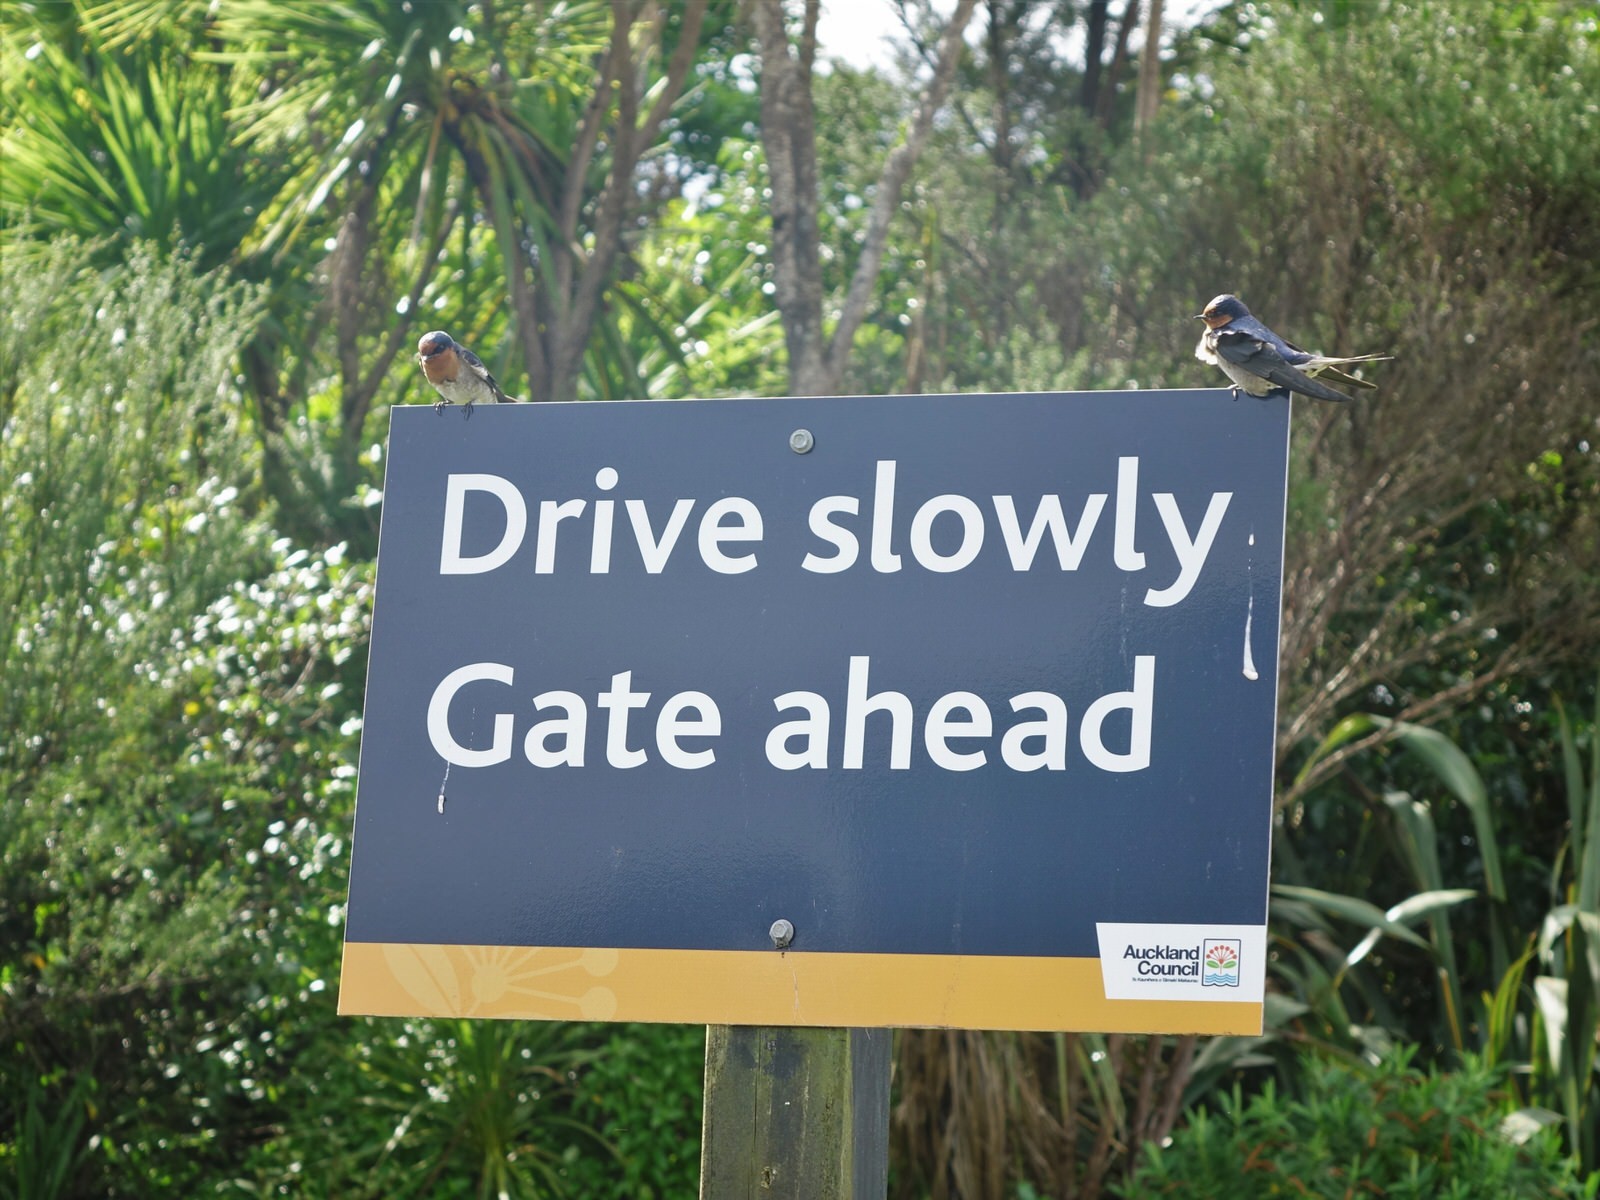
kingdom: Animalia
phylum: Chordata
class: Aves
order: Passeriformes
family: Hirundinidae
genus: Hirundo
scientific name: Hirundo neoxena
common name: Welcome swallow
